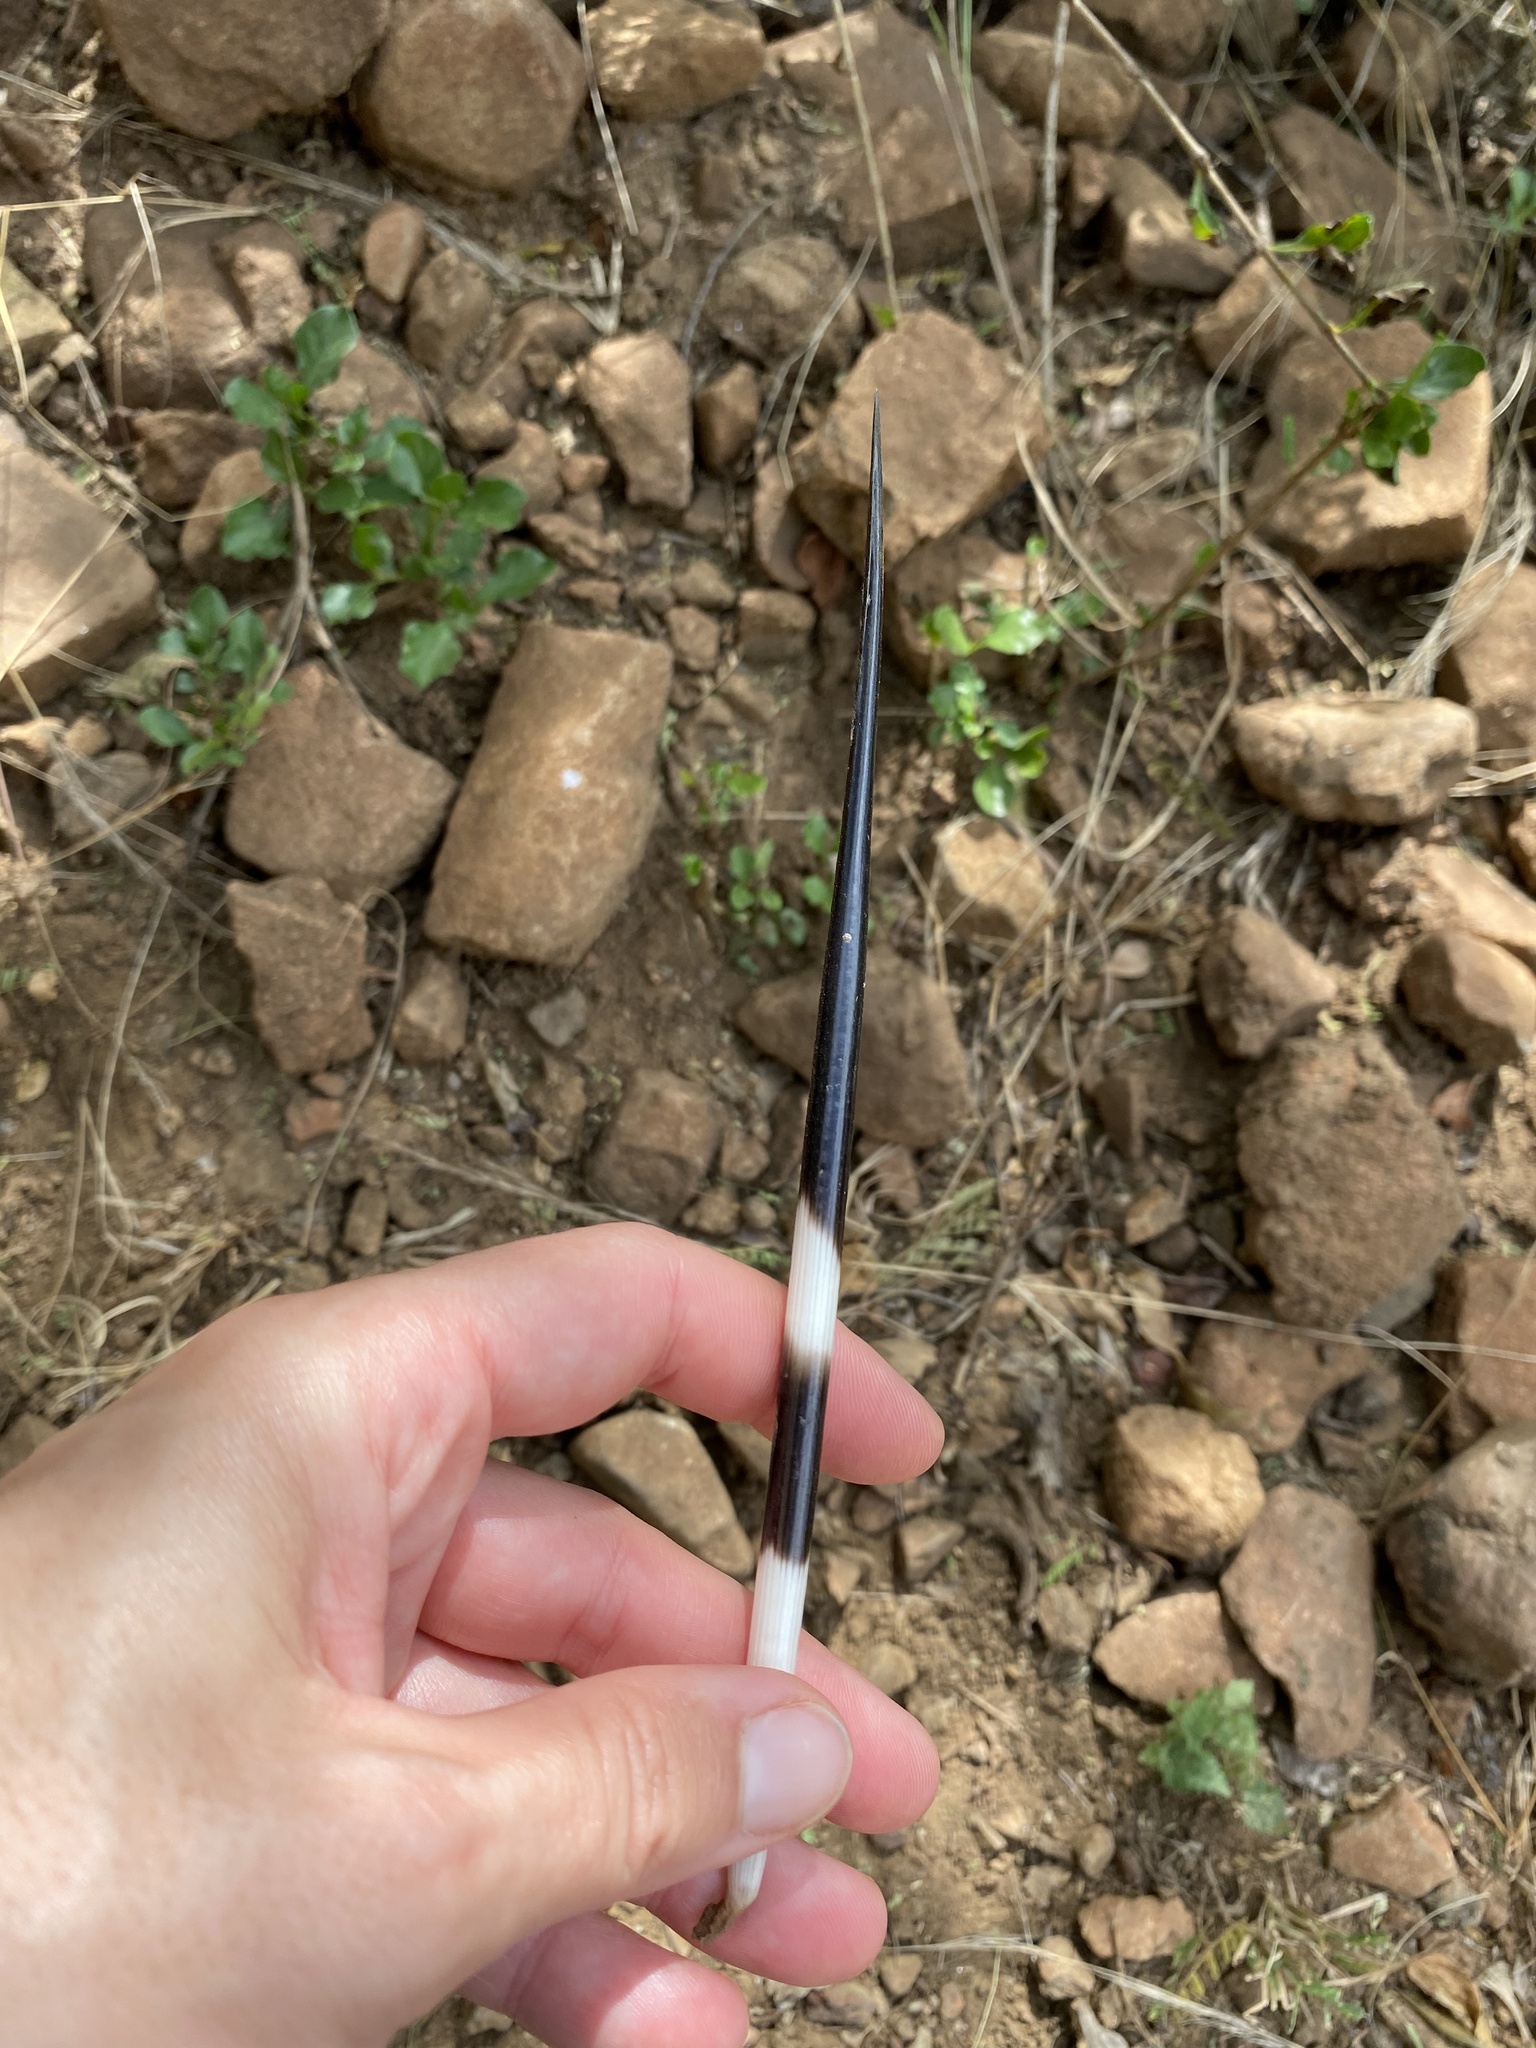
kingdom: Animalia
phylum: Chordata
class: Mammalia
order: Rodentia
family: Hystricidae
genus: Hystrix
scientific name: Hystrix africaeaustralis
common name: Cape porcupine
